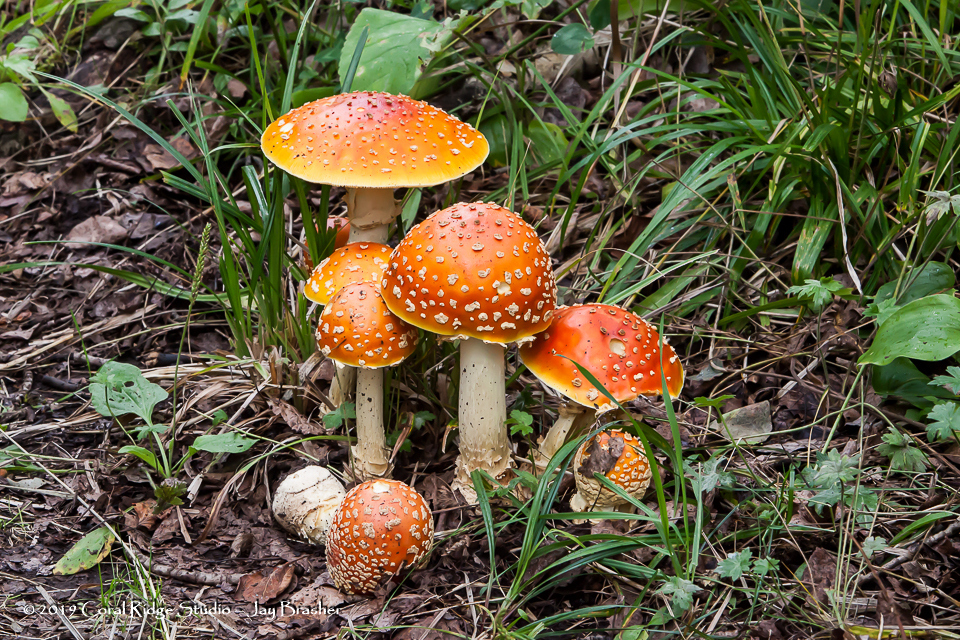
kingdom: Fungi
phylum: Basidiomycota
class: Agaricomycetes
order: Agaricales
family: Amanitaceae
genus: Amanita
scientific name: Amanita muscaria
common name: Fly agaric
